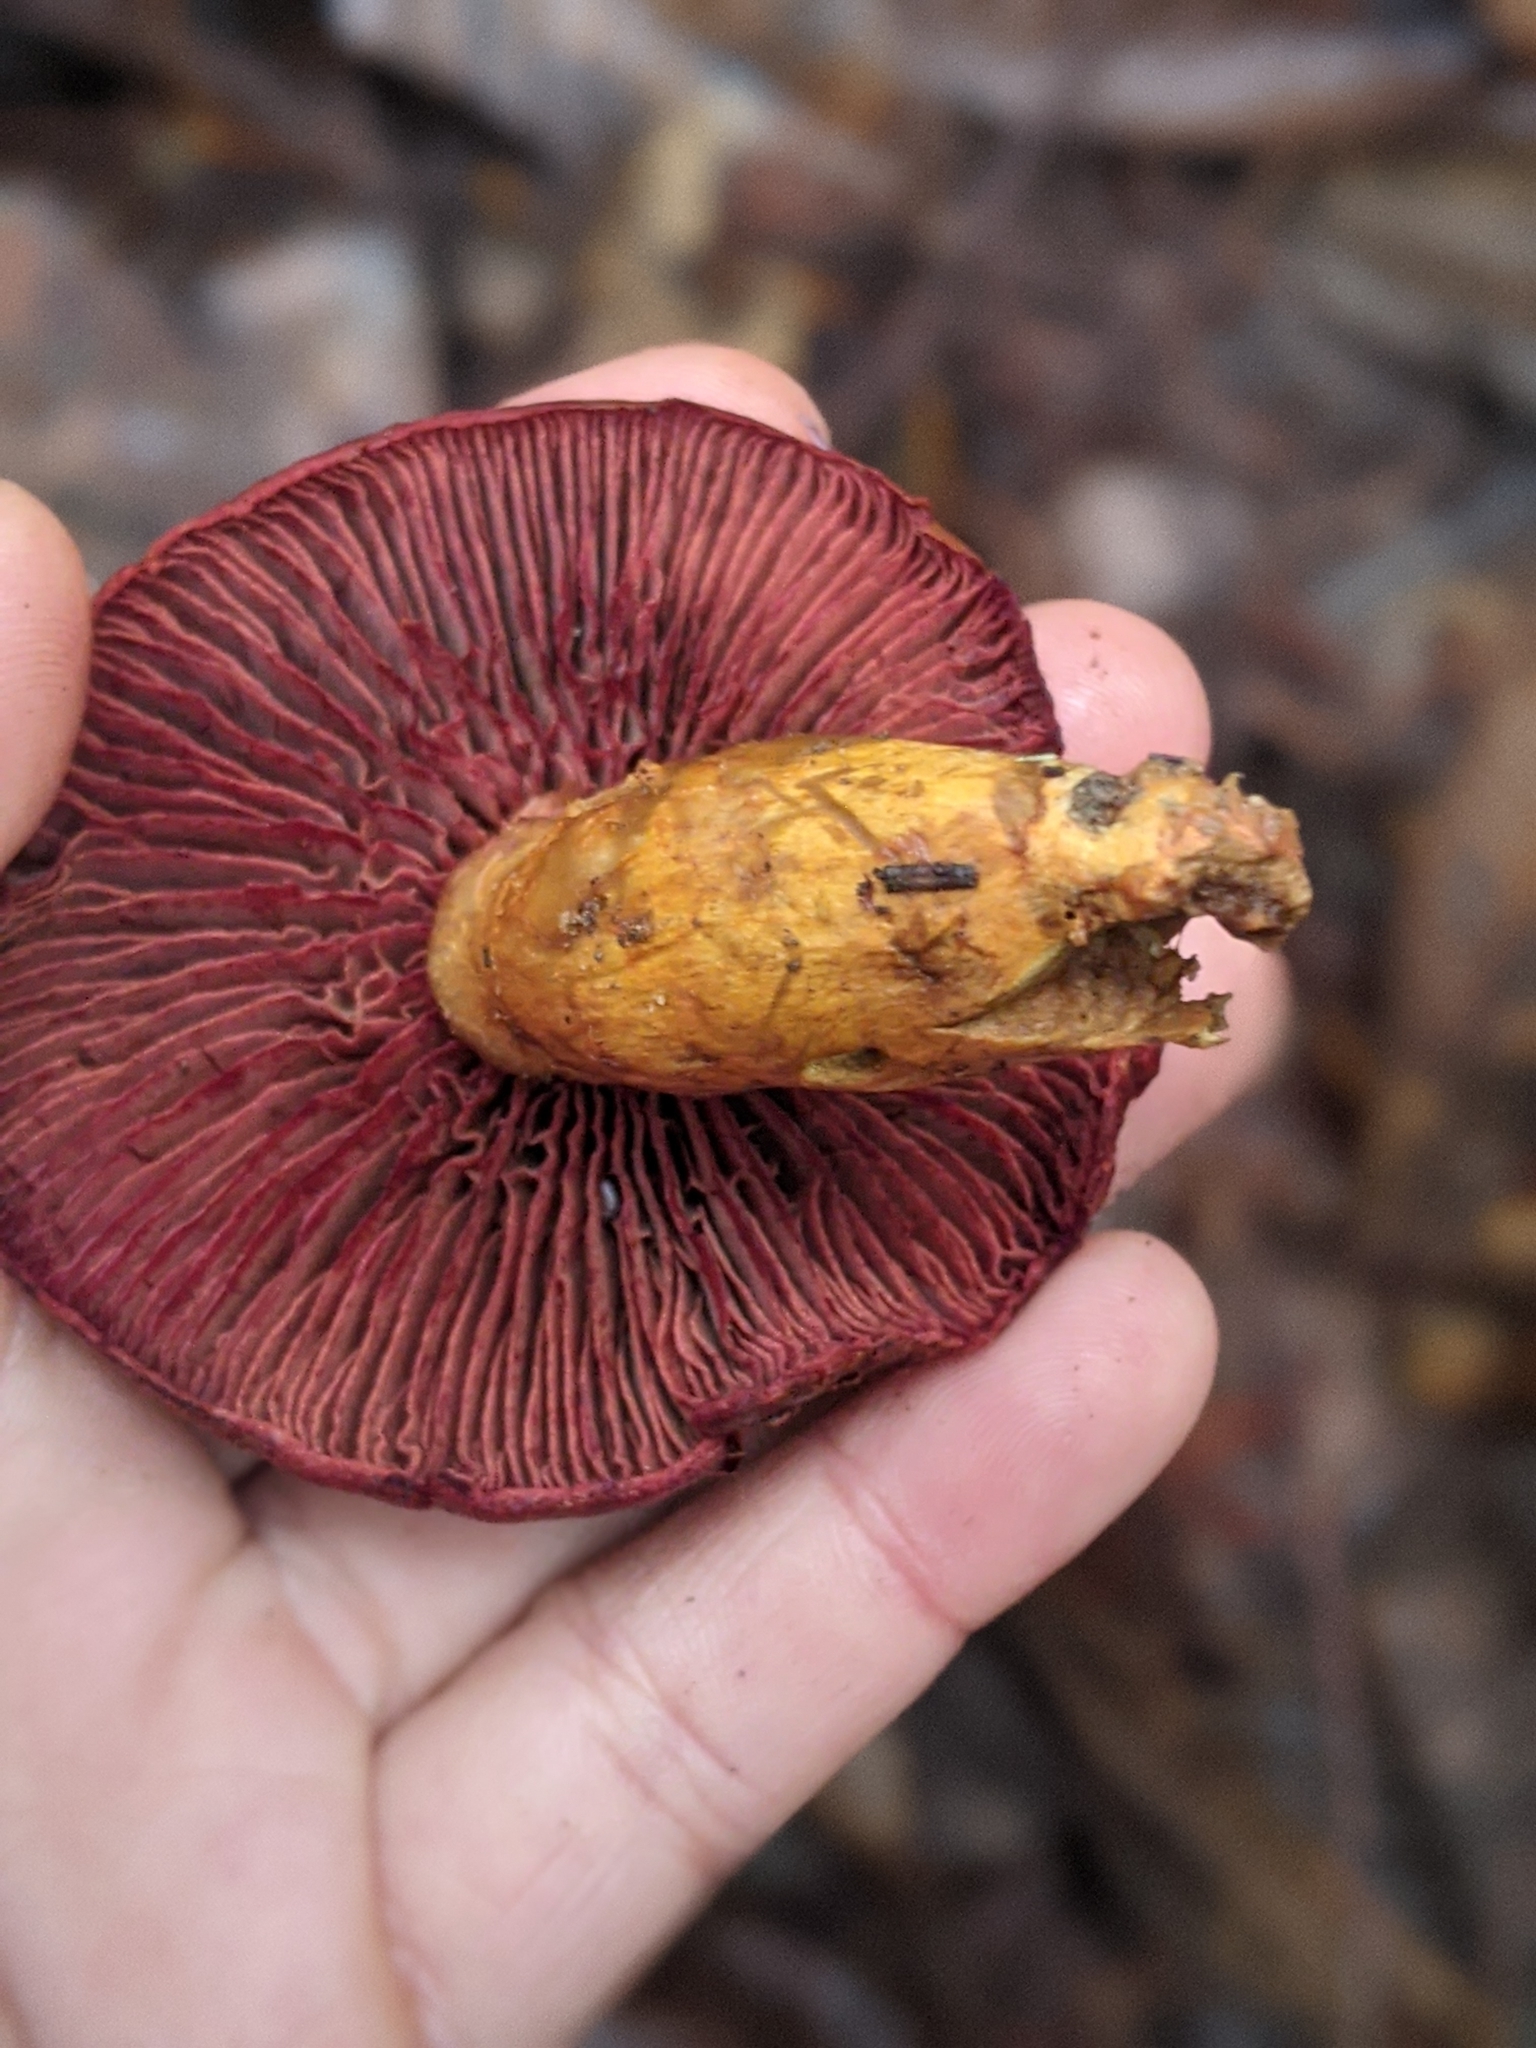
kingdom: Fungi
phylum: Basidiomycota
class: Agaricomycetes
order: Agaricales
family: Cortinariaceae
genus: Cortinarius
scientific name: Cortinarius smithii
